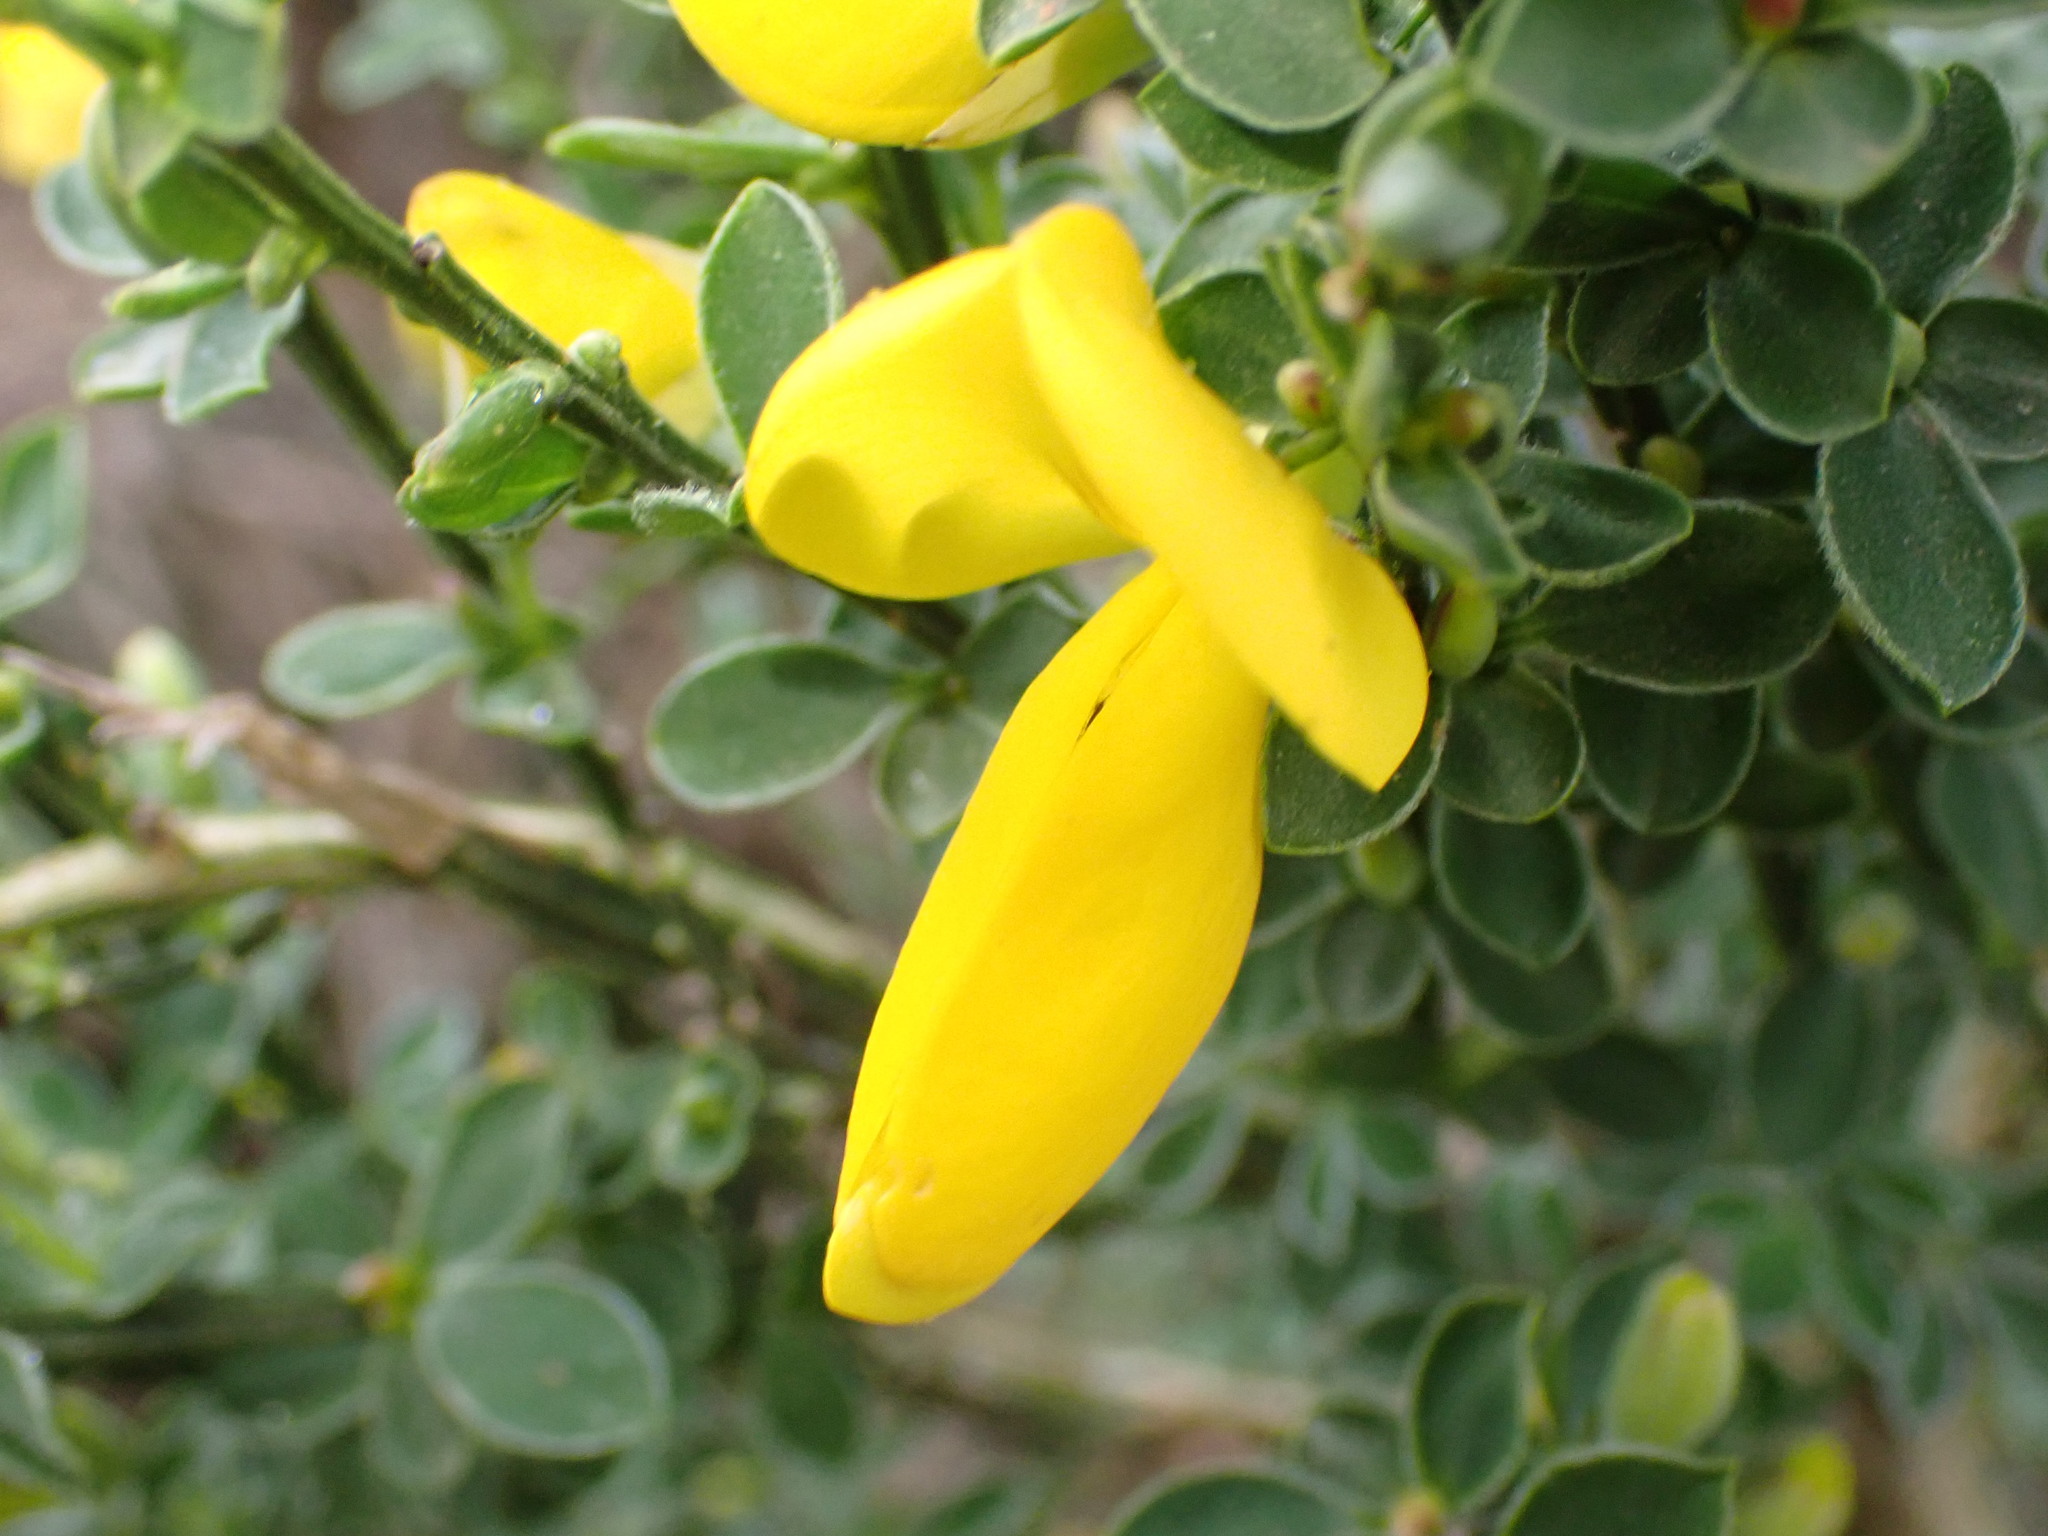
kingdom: Plantae
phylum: Tracheophyta
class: Magnoliopsida
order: Fabales
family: Fabaceae
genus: Cytisus
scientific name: Cytisus scoparius
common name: Scotch broom
